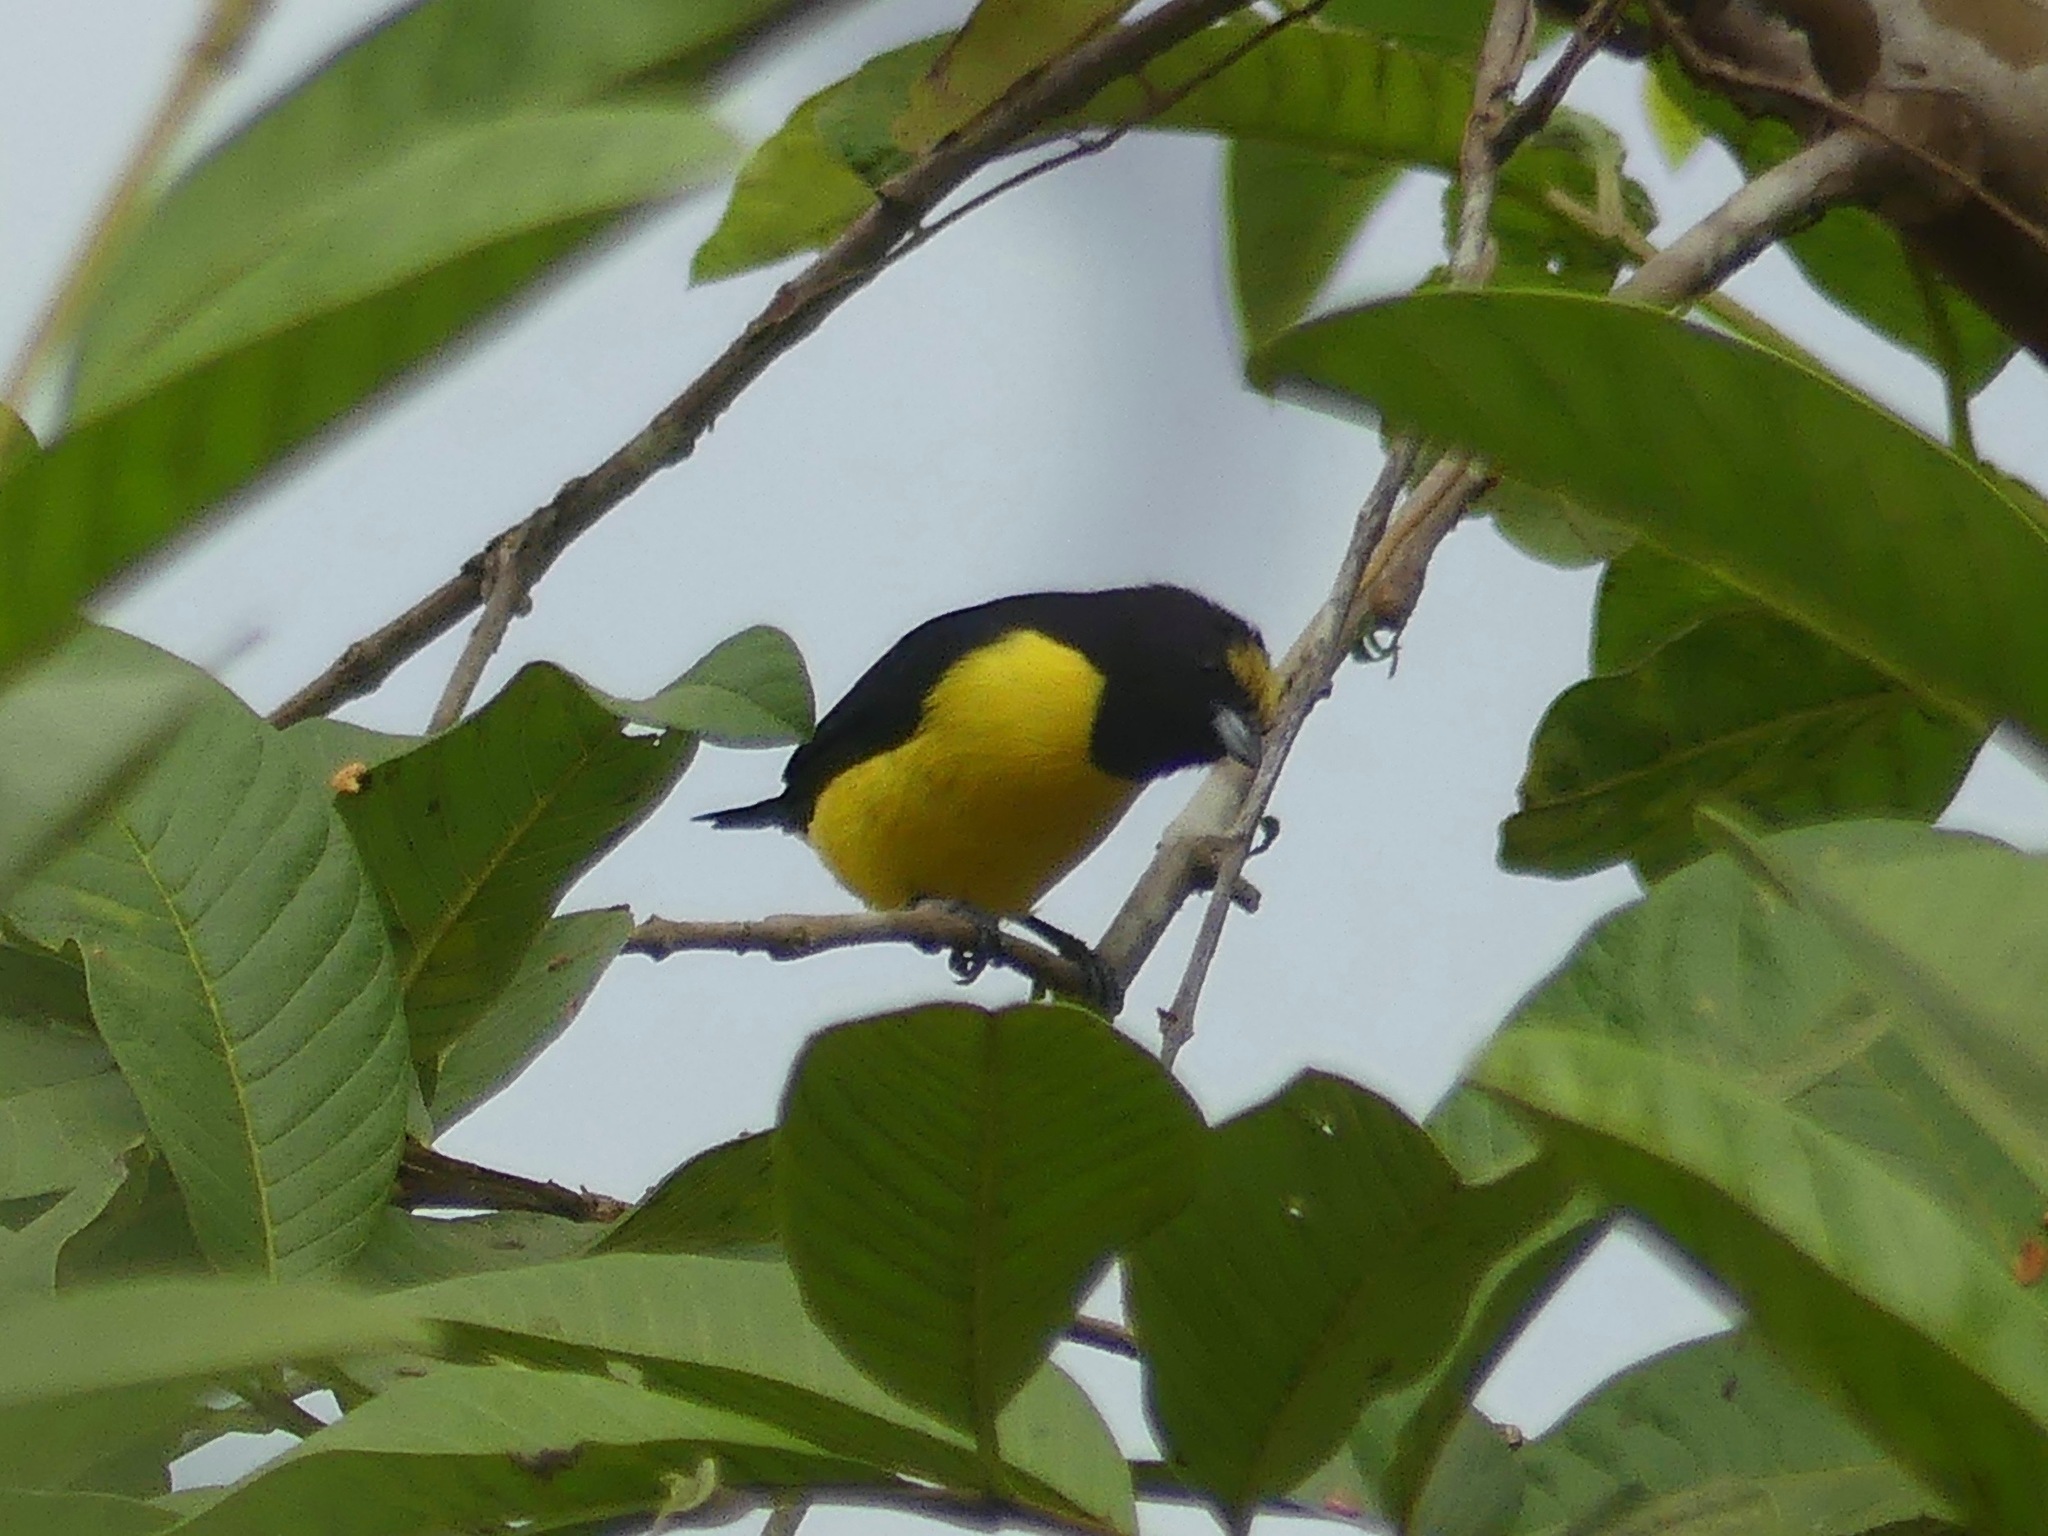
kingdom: Animalia
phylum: Chordata
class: Aves
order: Passeriformes
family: Fringillidae
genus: Euphonia
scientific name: Euphonia chlorotica
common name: Purple-throated euphonia
